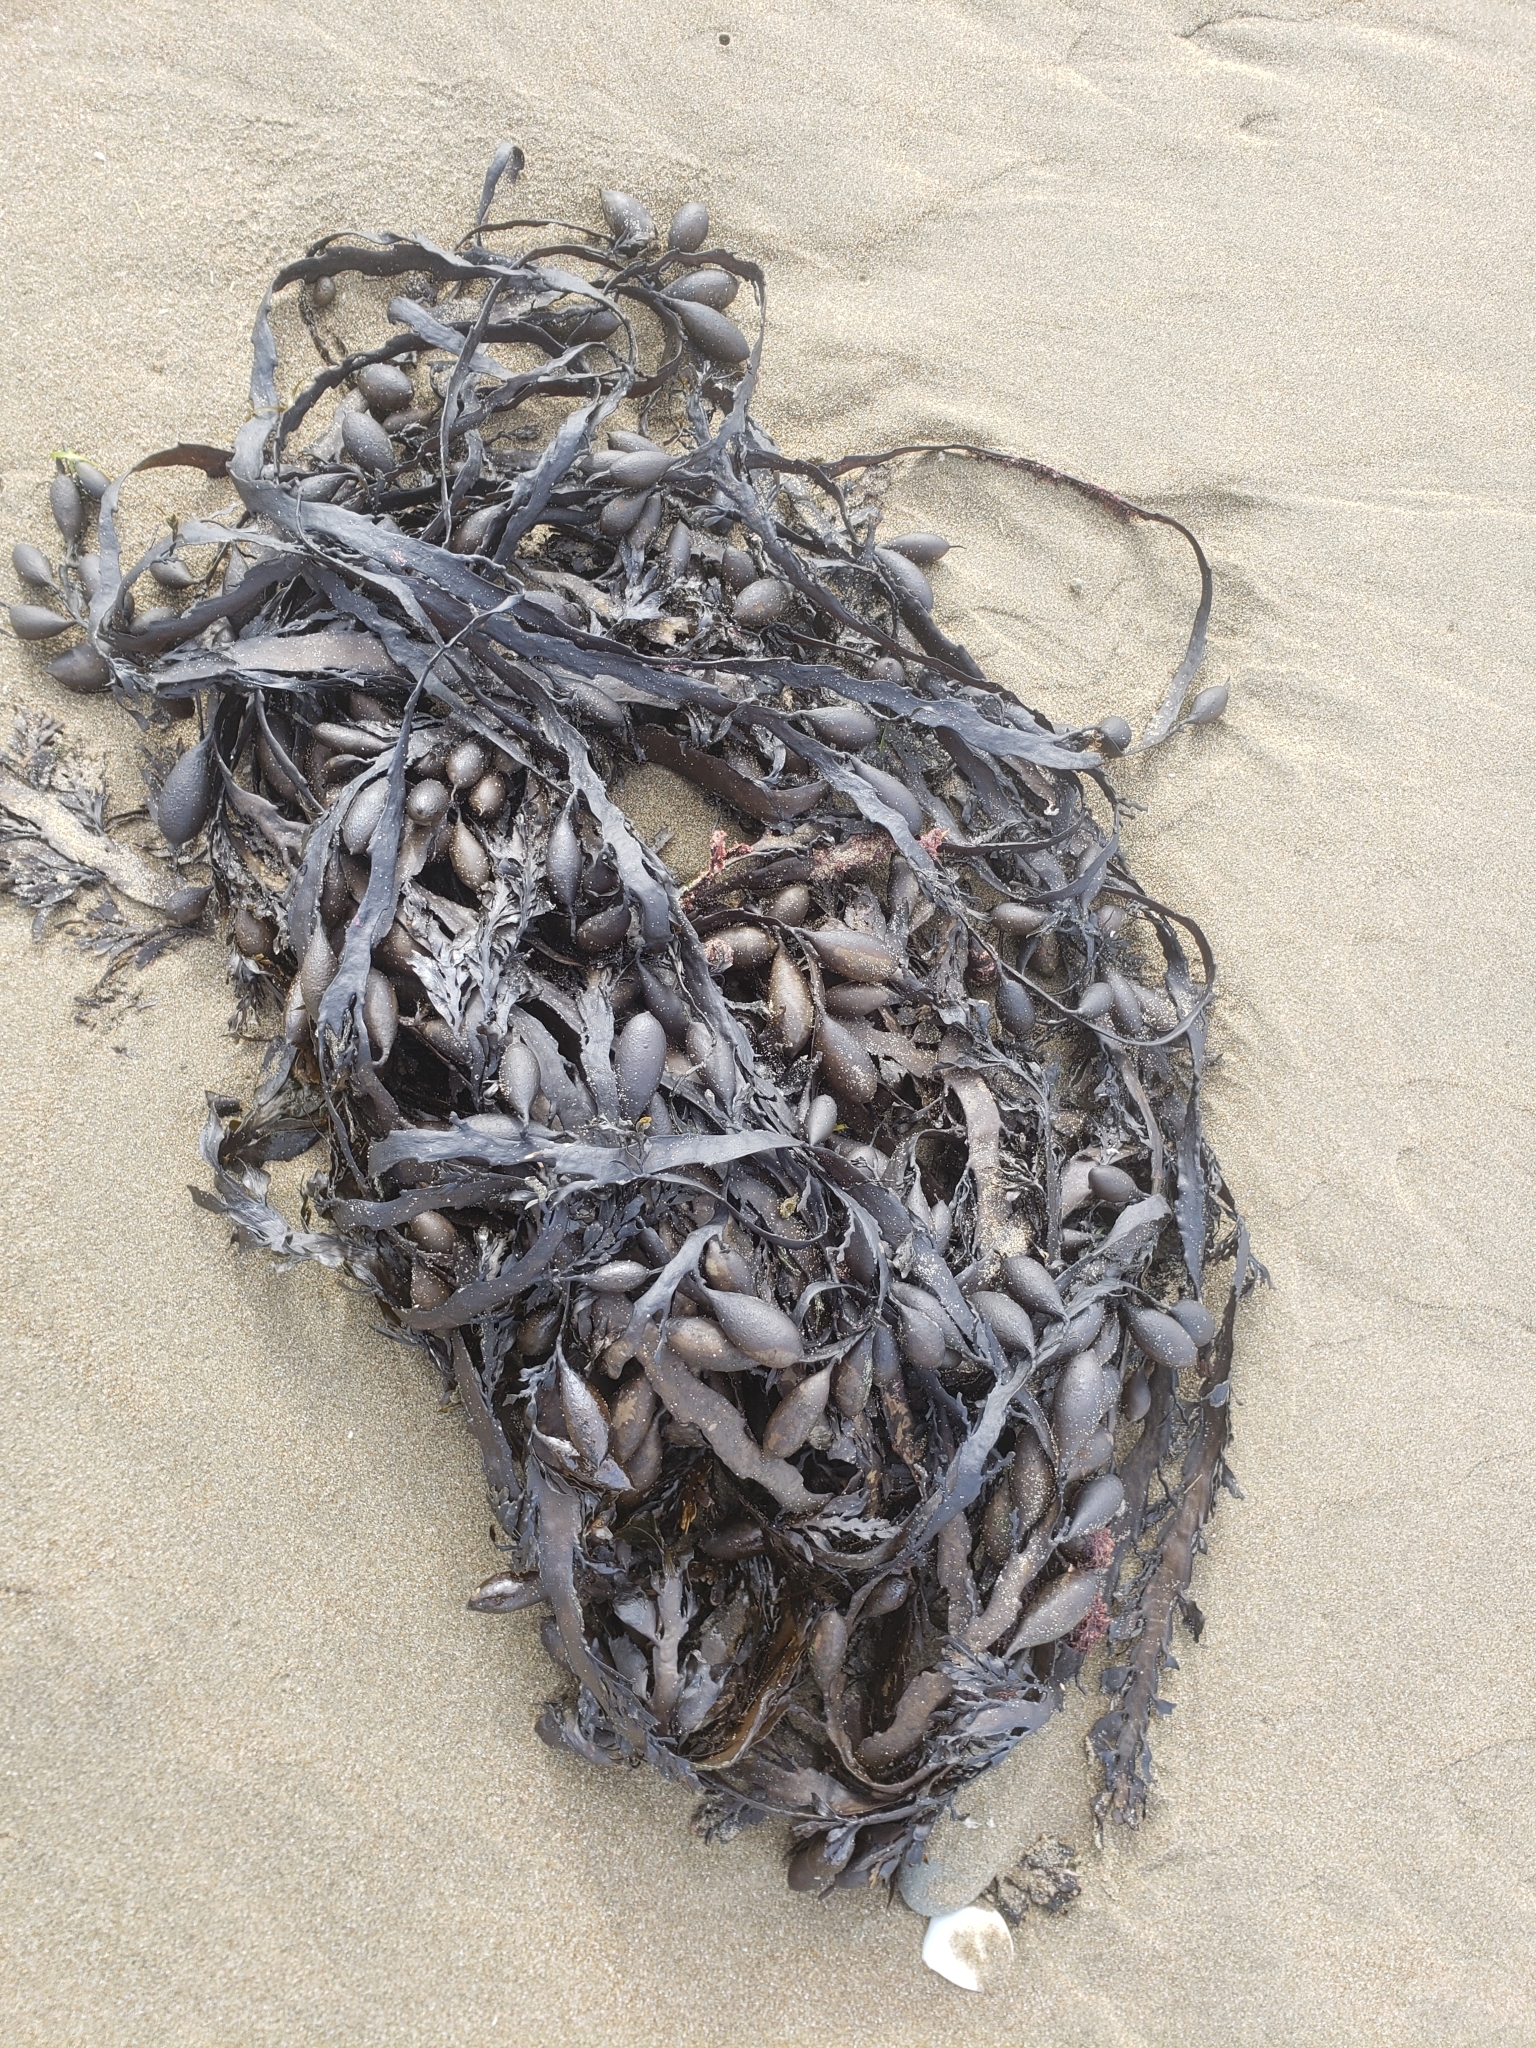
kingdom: Chromista
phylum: Ochrophyta
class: Phaeophyceae
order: Fucales
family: Sargassaceae
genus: Carpophyllum
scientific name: Carpophyllum maschalocarpum
